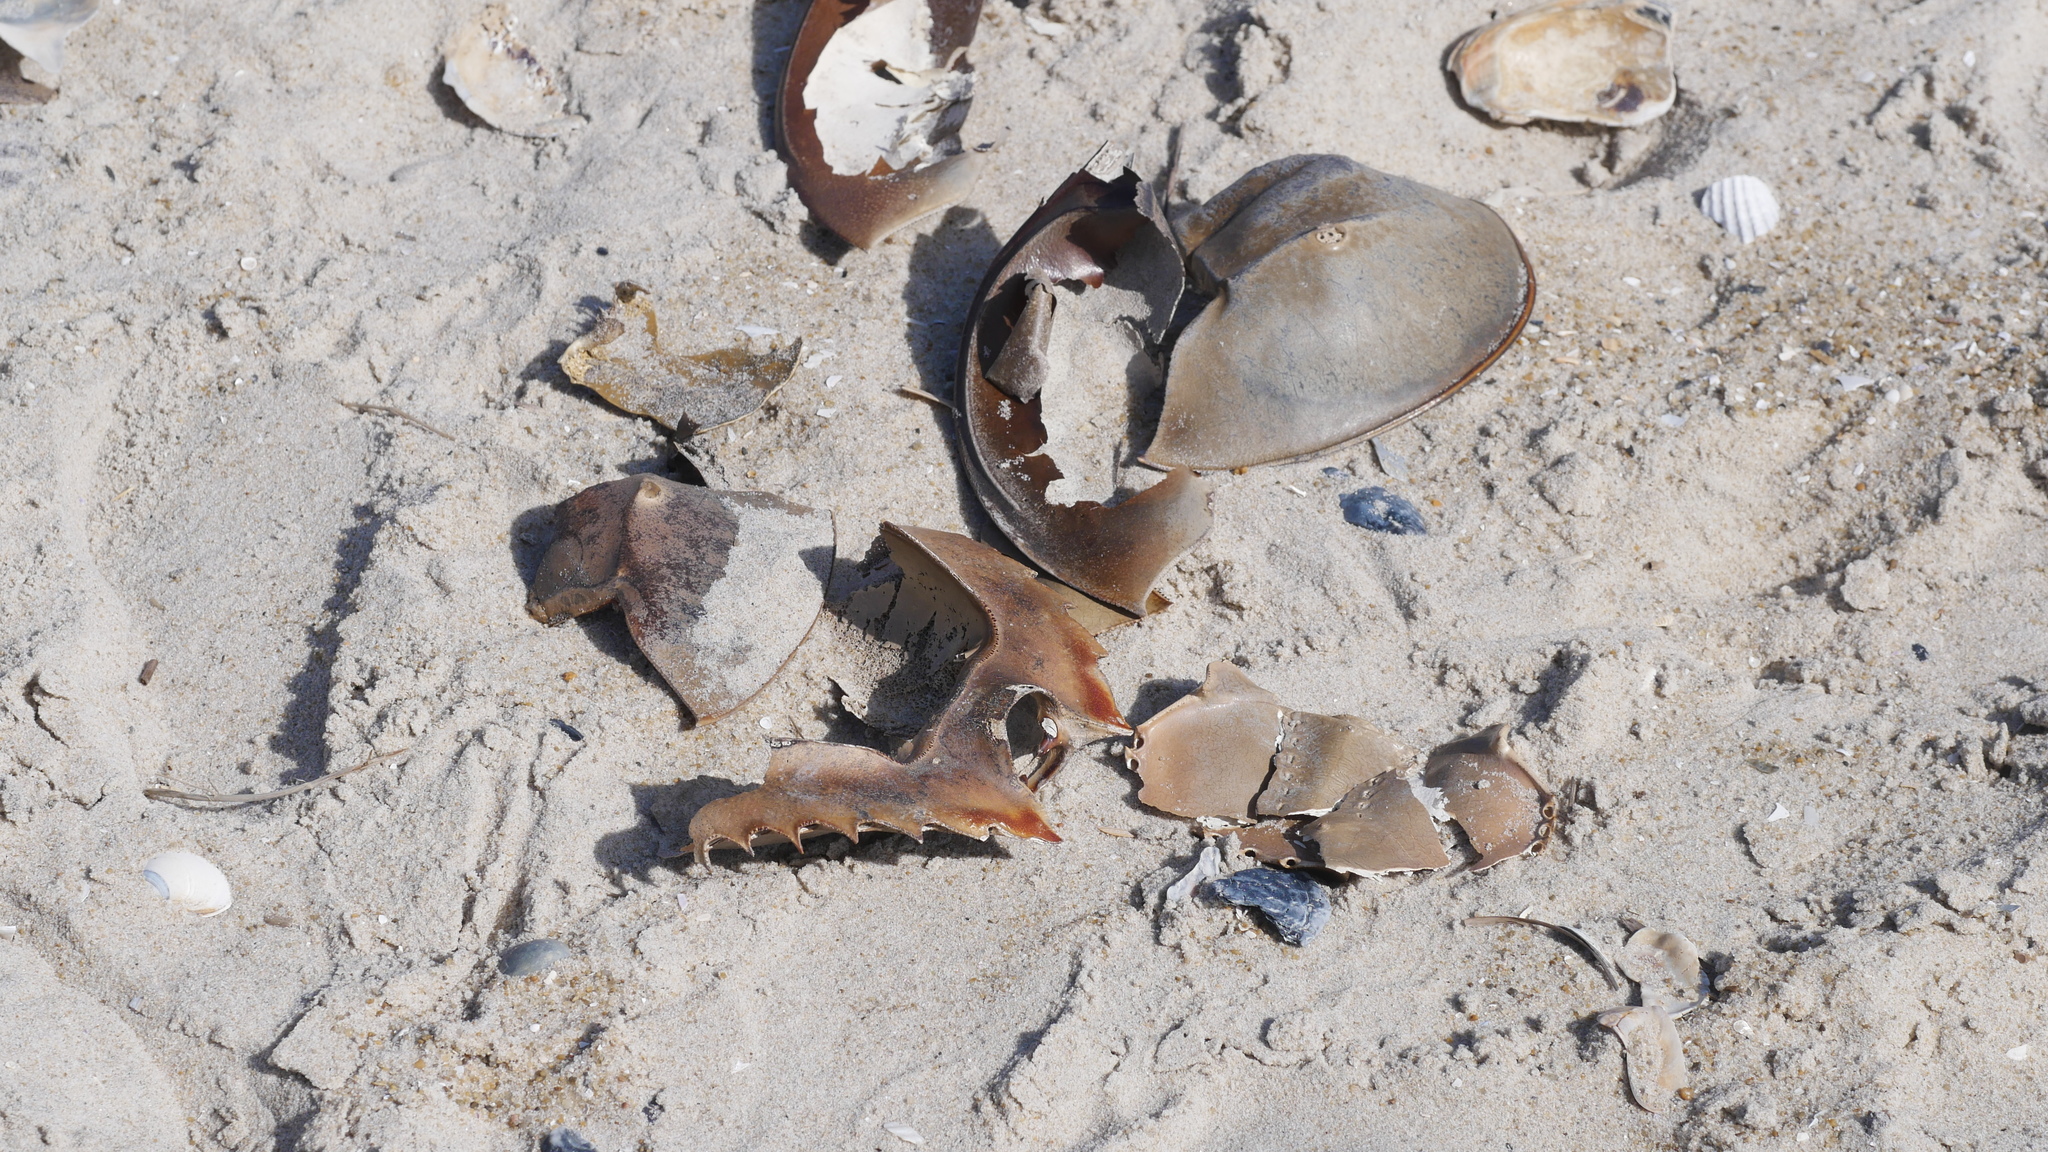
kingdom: Animalia
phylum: Arthropoda
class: Merostomata
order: Xiphosurida
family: Limulidae
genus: Limulus
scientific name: Limulus polyphemus
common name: Horseshoe crab
